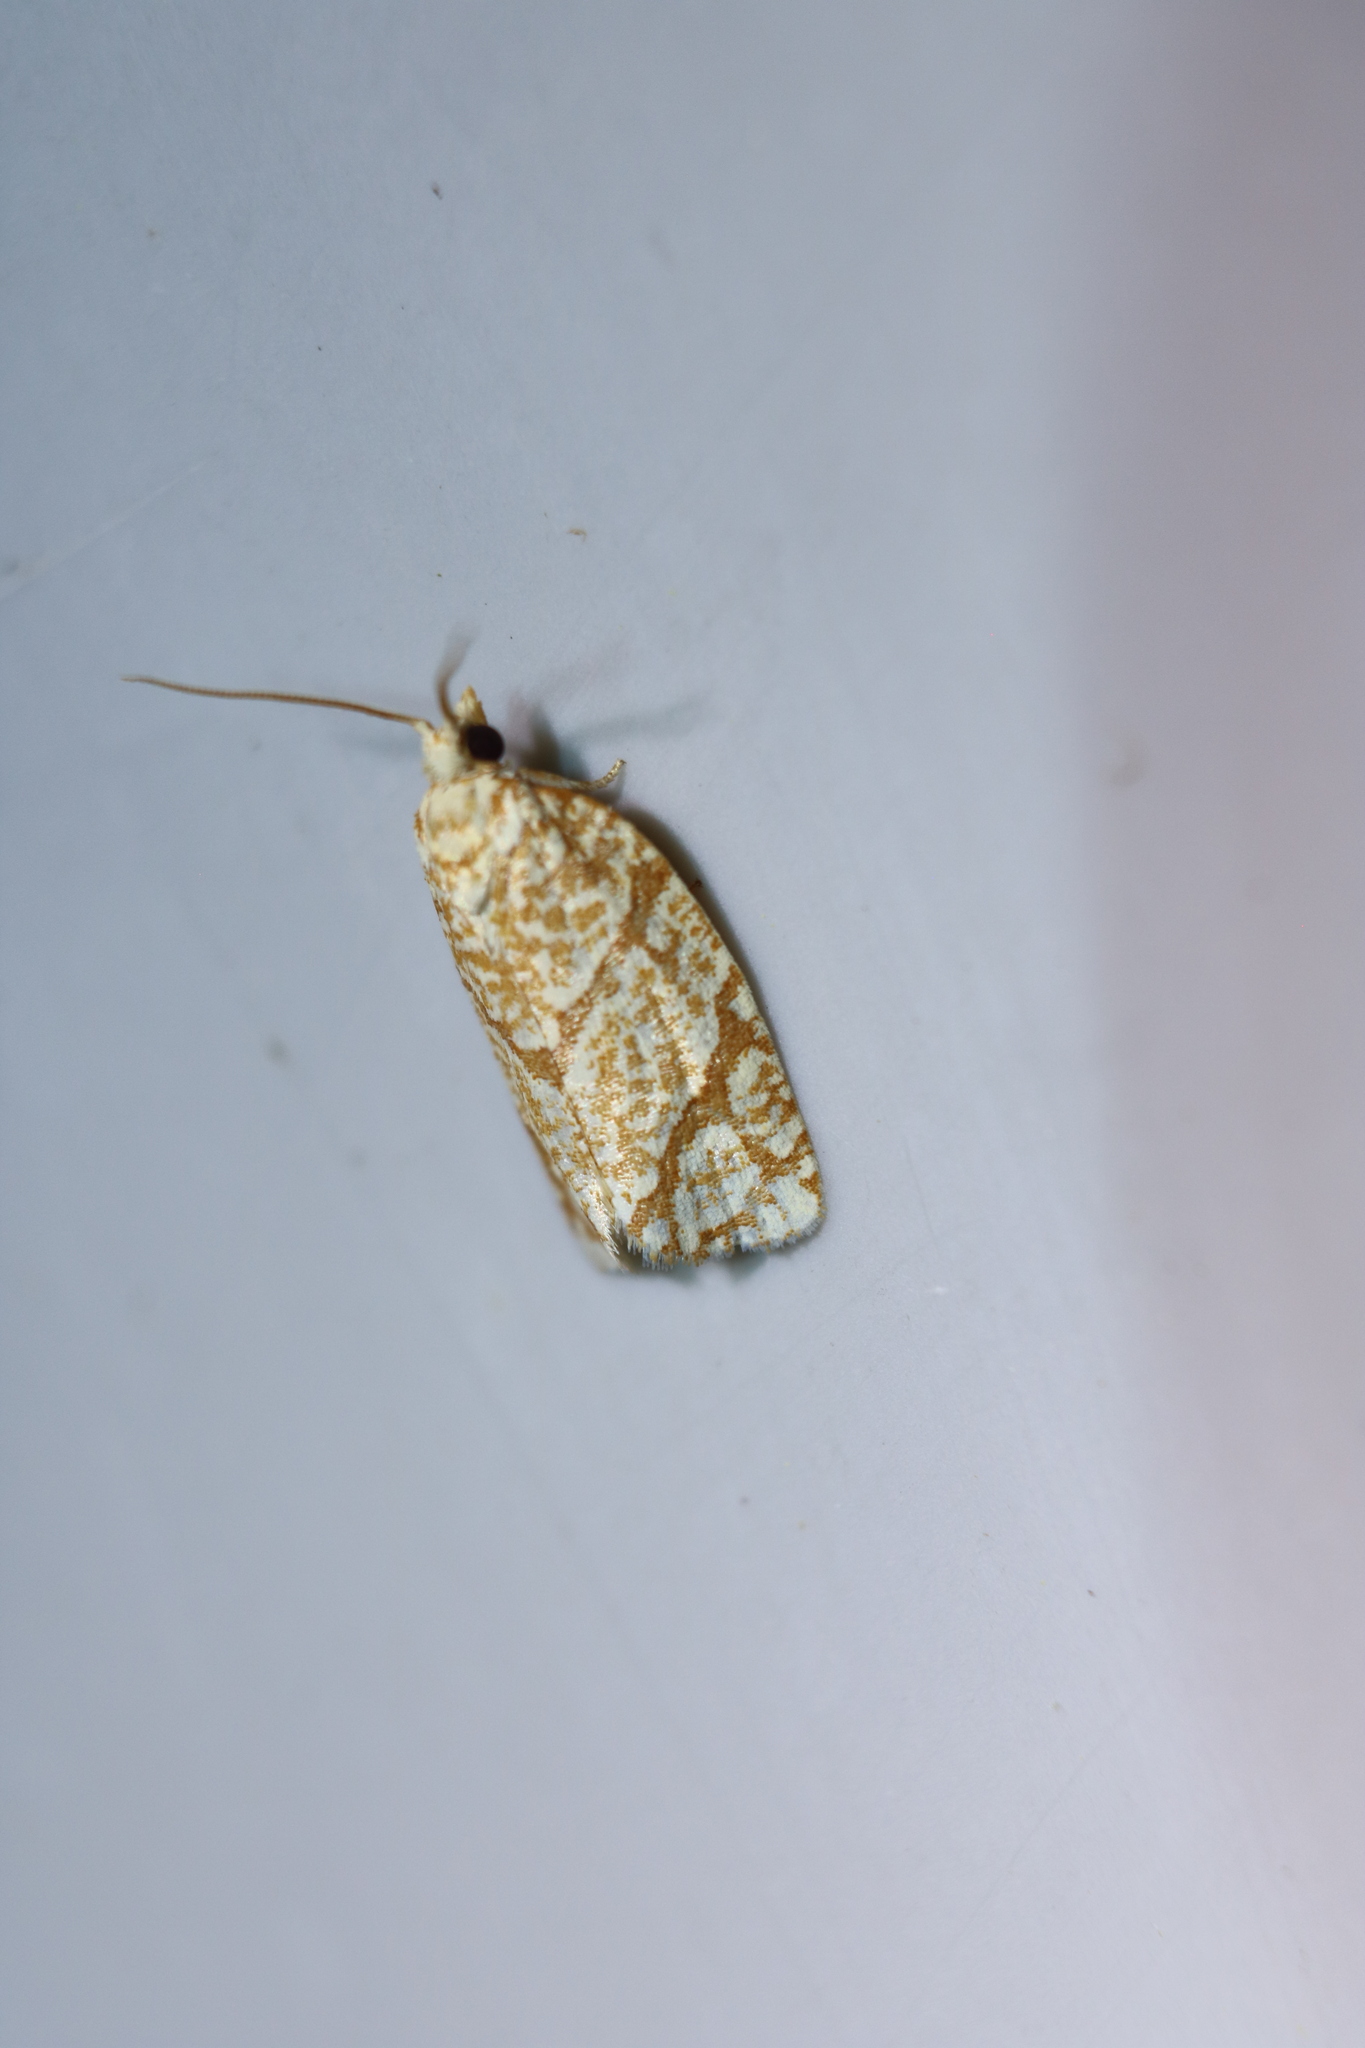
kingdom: Animalia
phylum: Arthropoda
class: Insecta
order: Lepidoptera
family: Tortricidae
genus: Argyrotaenia
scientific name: Argyrotaenia quercifoliana
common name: Yellow-winged oak leafroller moth
